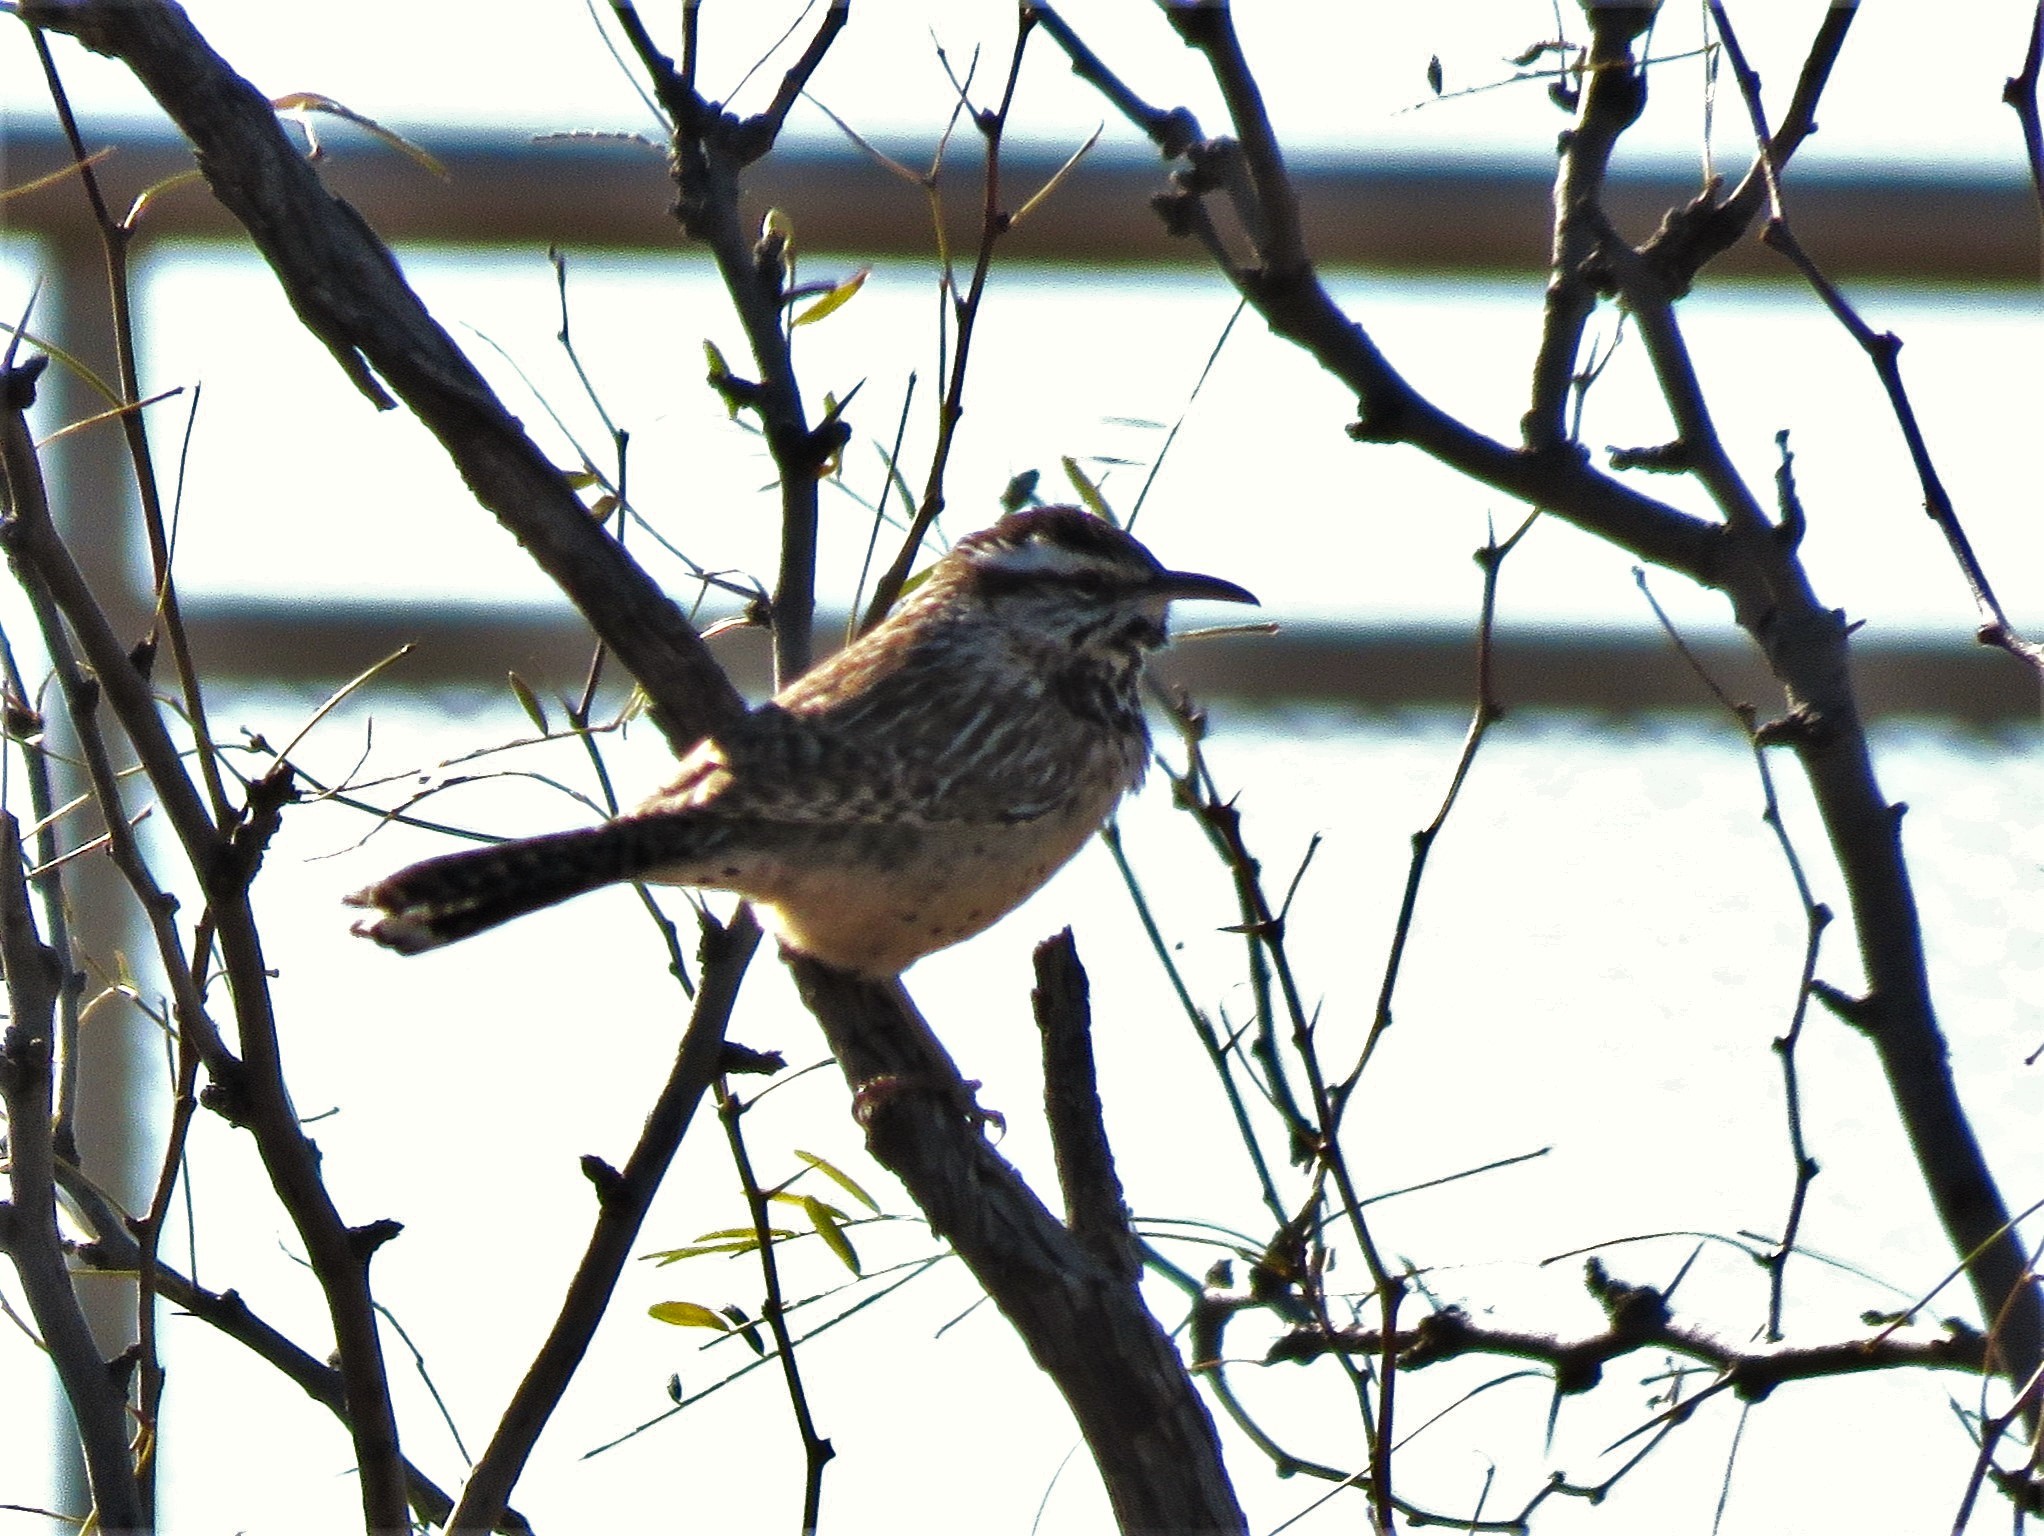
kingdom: Animalia
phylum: Chordata
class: Aves
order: Passeriformes
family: Troglodytidae
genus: Campylorhynchus
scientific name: Campylorhynchus brunneicapillus
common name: Cactus wren
